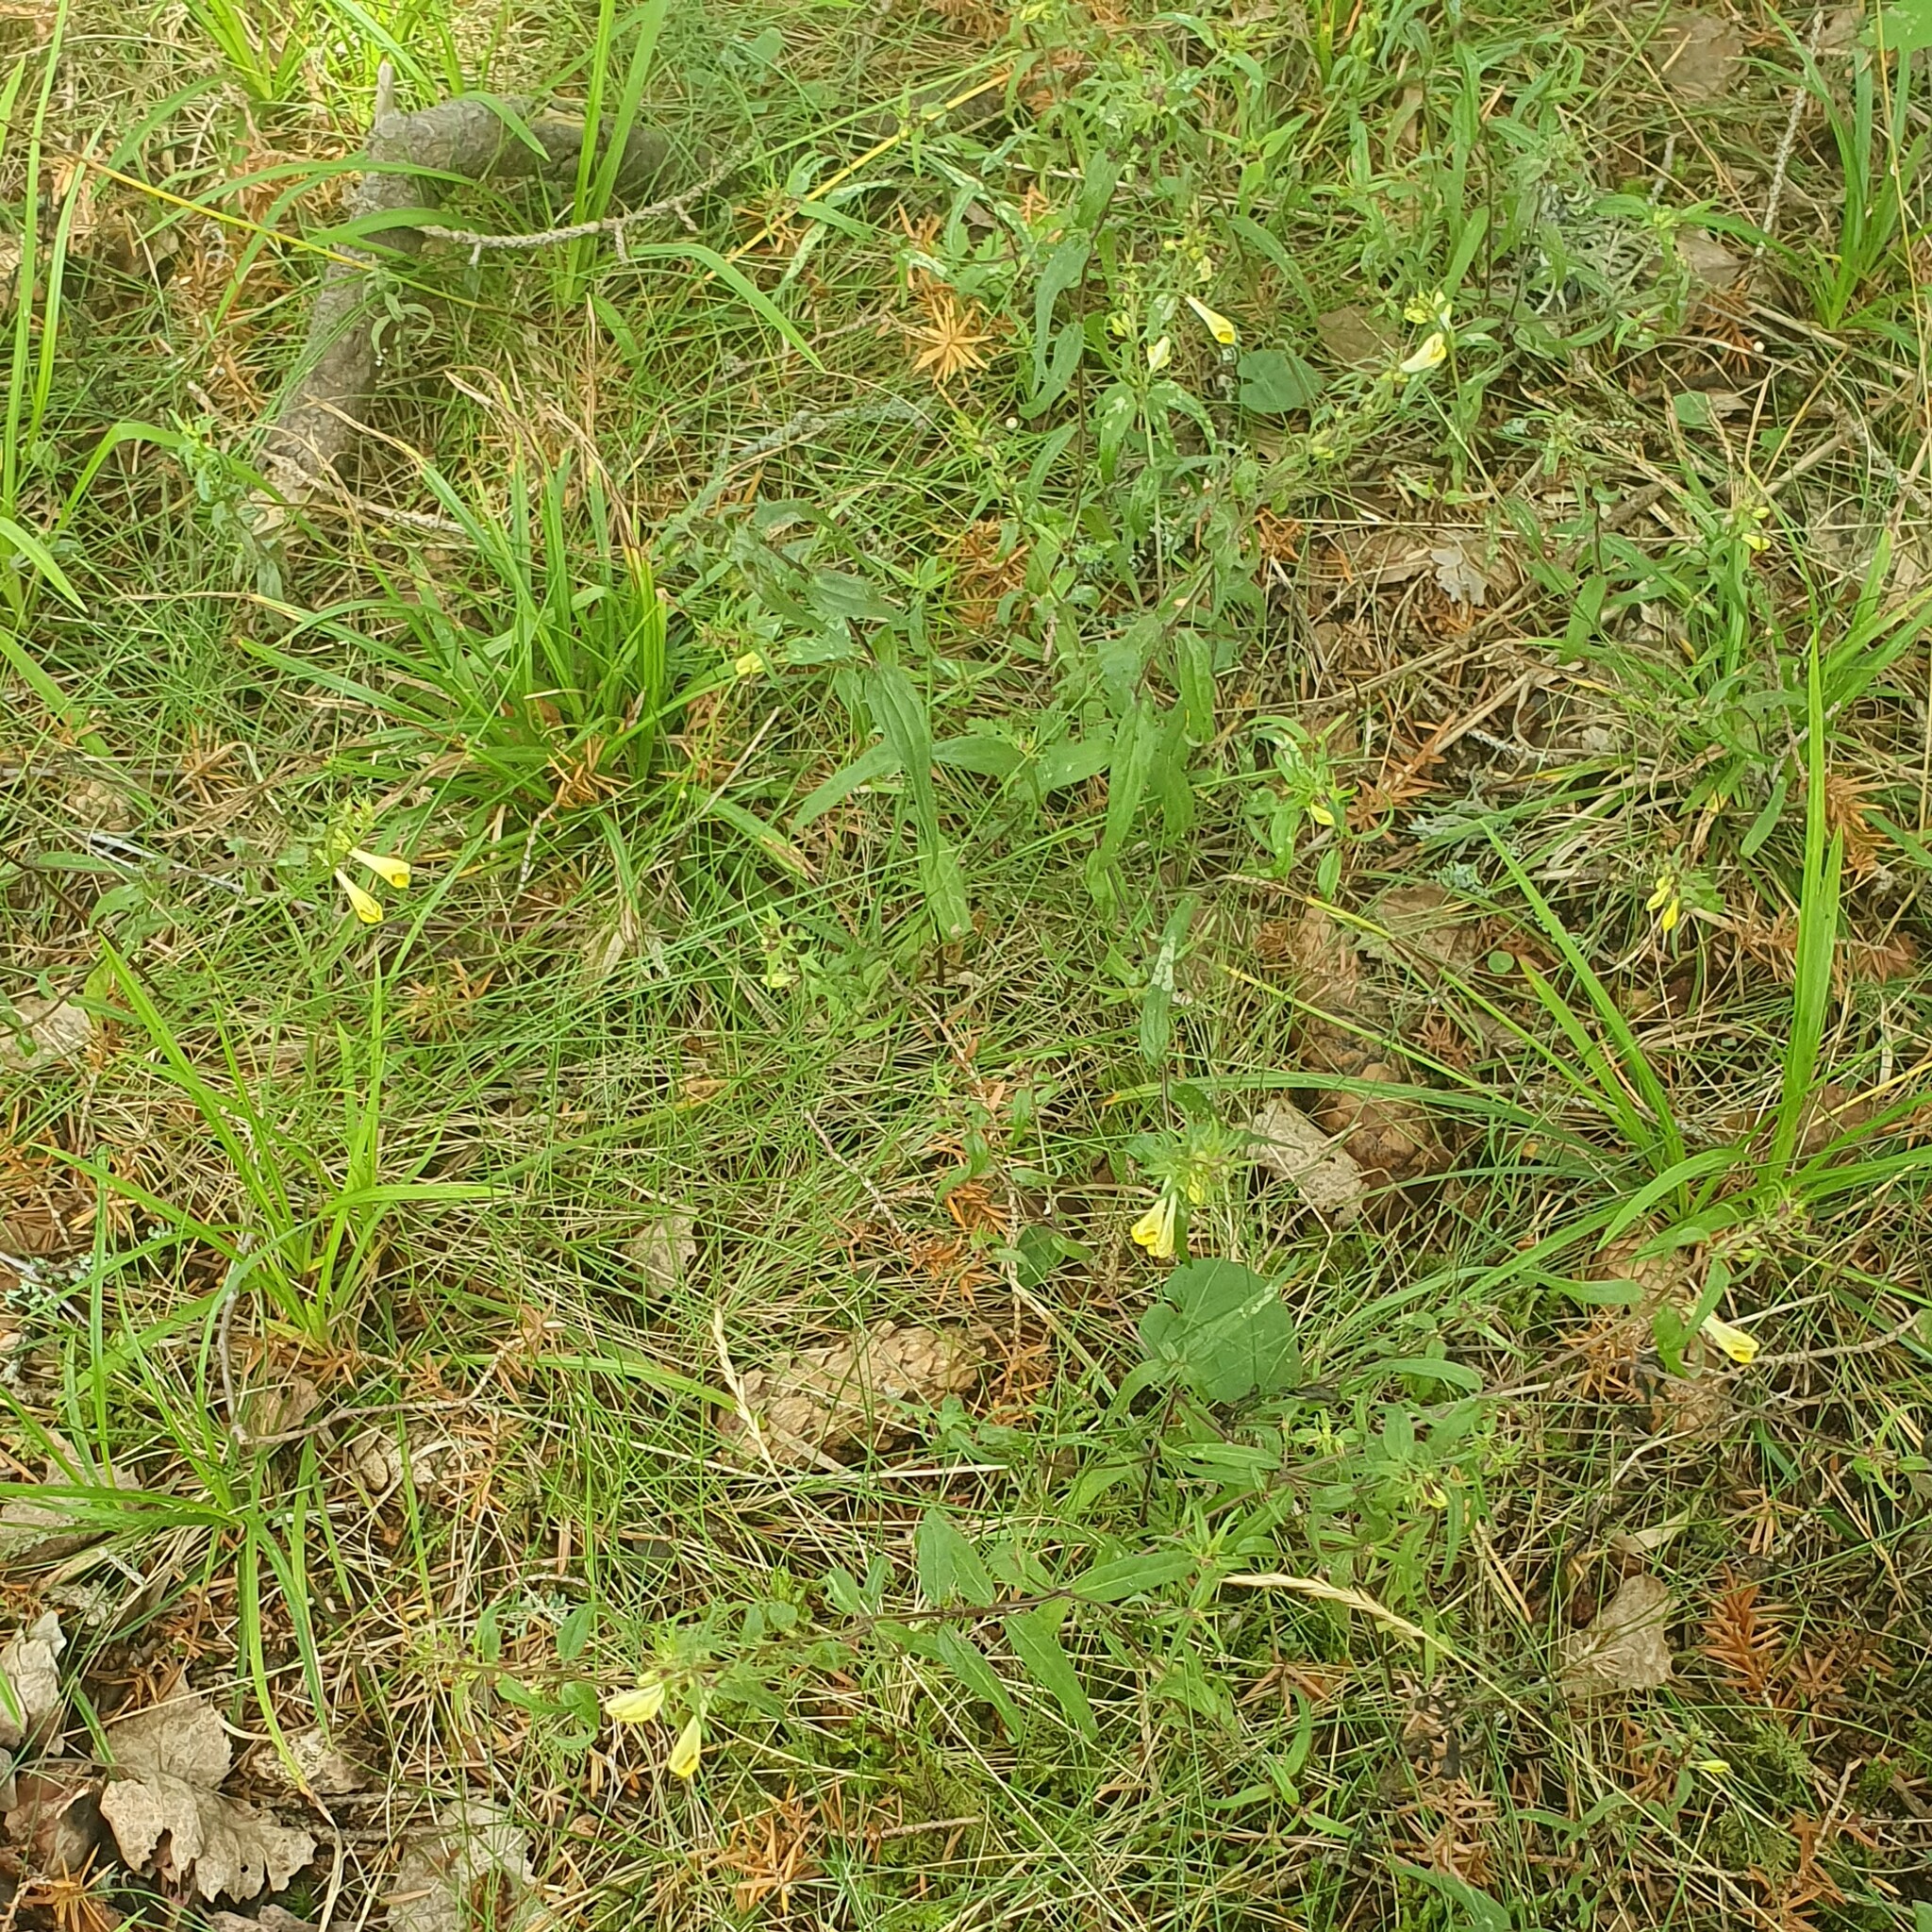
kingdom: Plantae
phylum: Tracheophyta
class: Magnoliopsida
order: Lamiales
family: Orobanchaceae
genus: Melampyrum
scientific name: Melampyrum pratense
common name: Common cow-wheat
